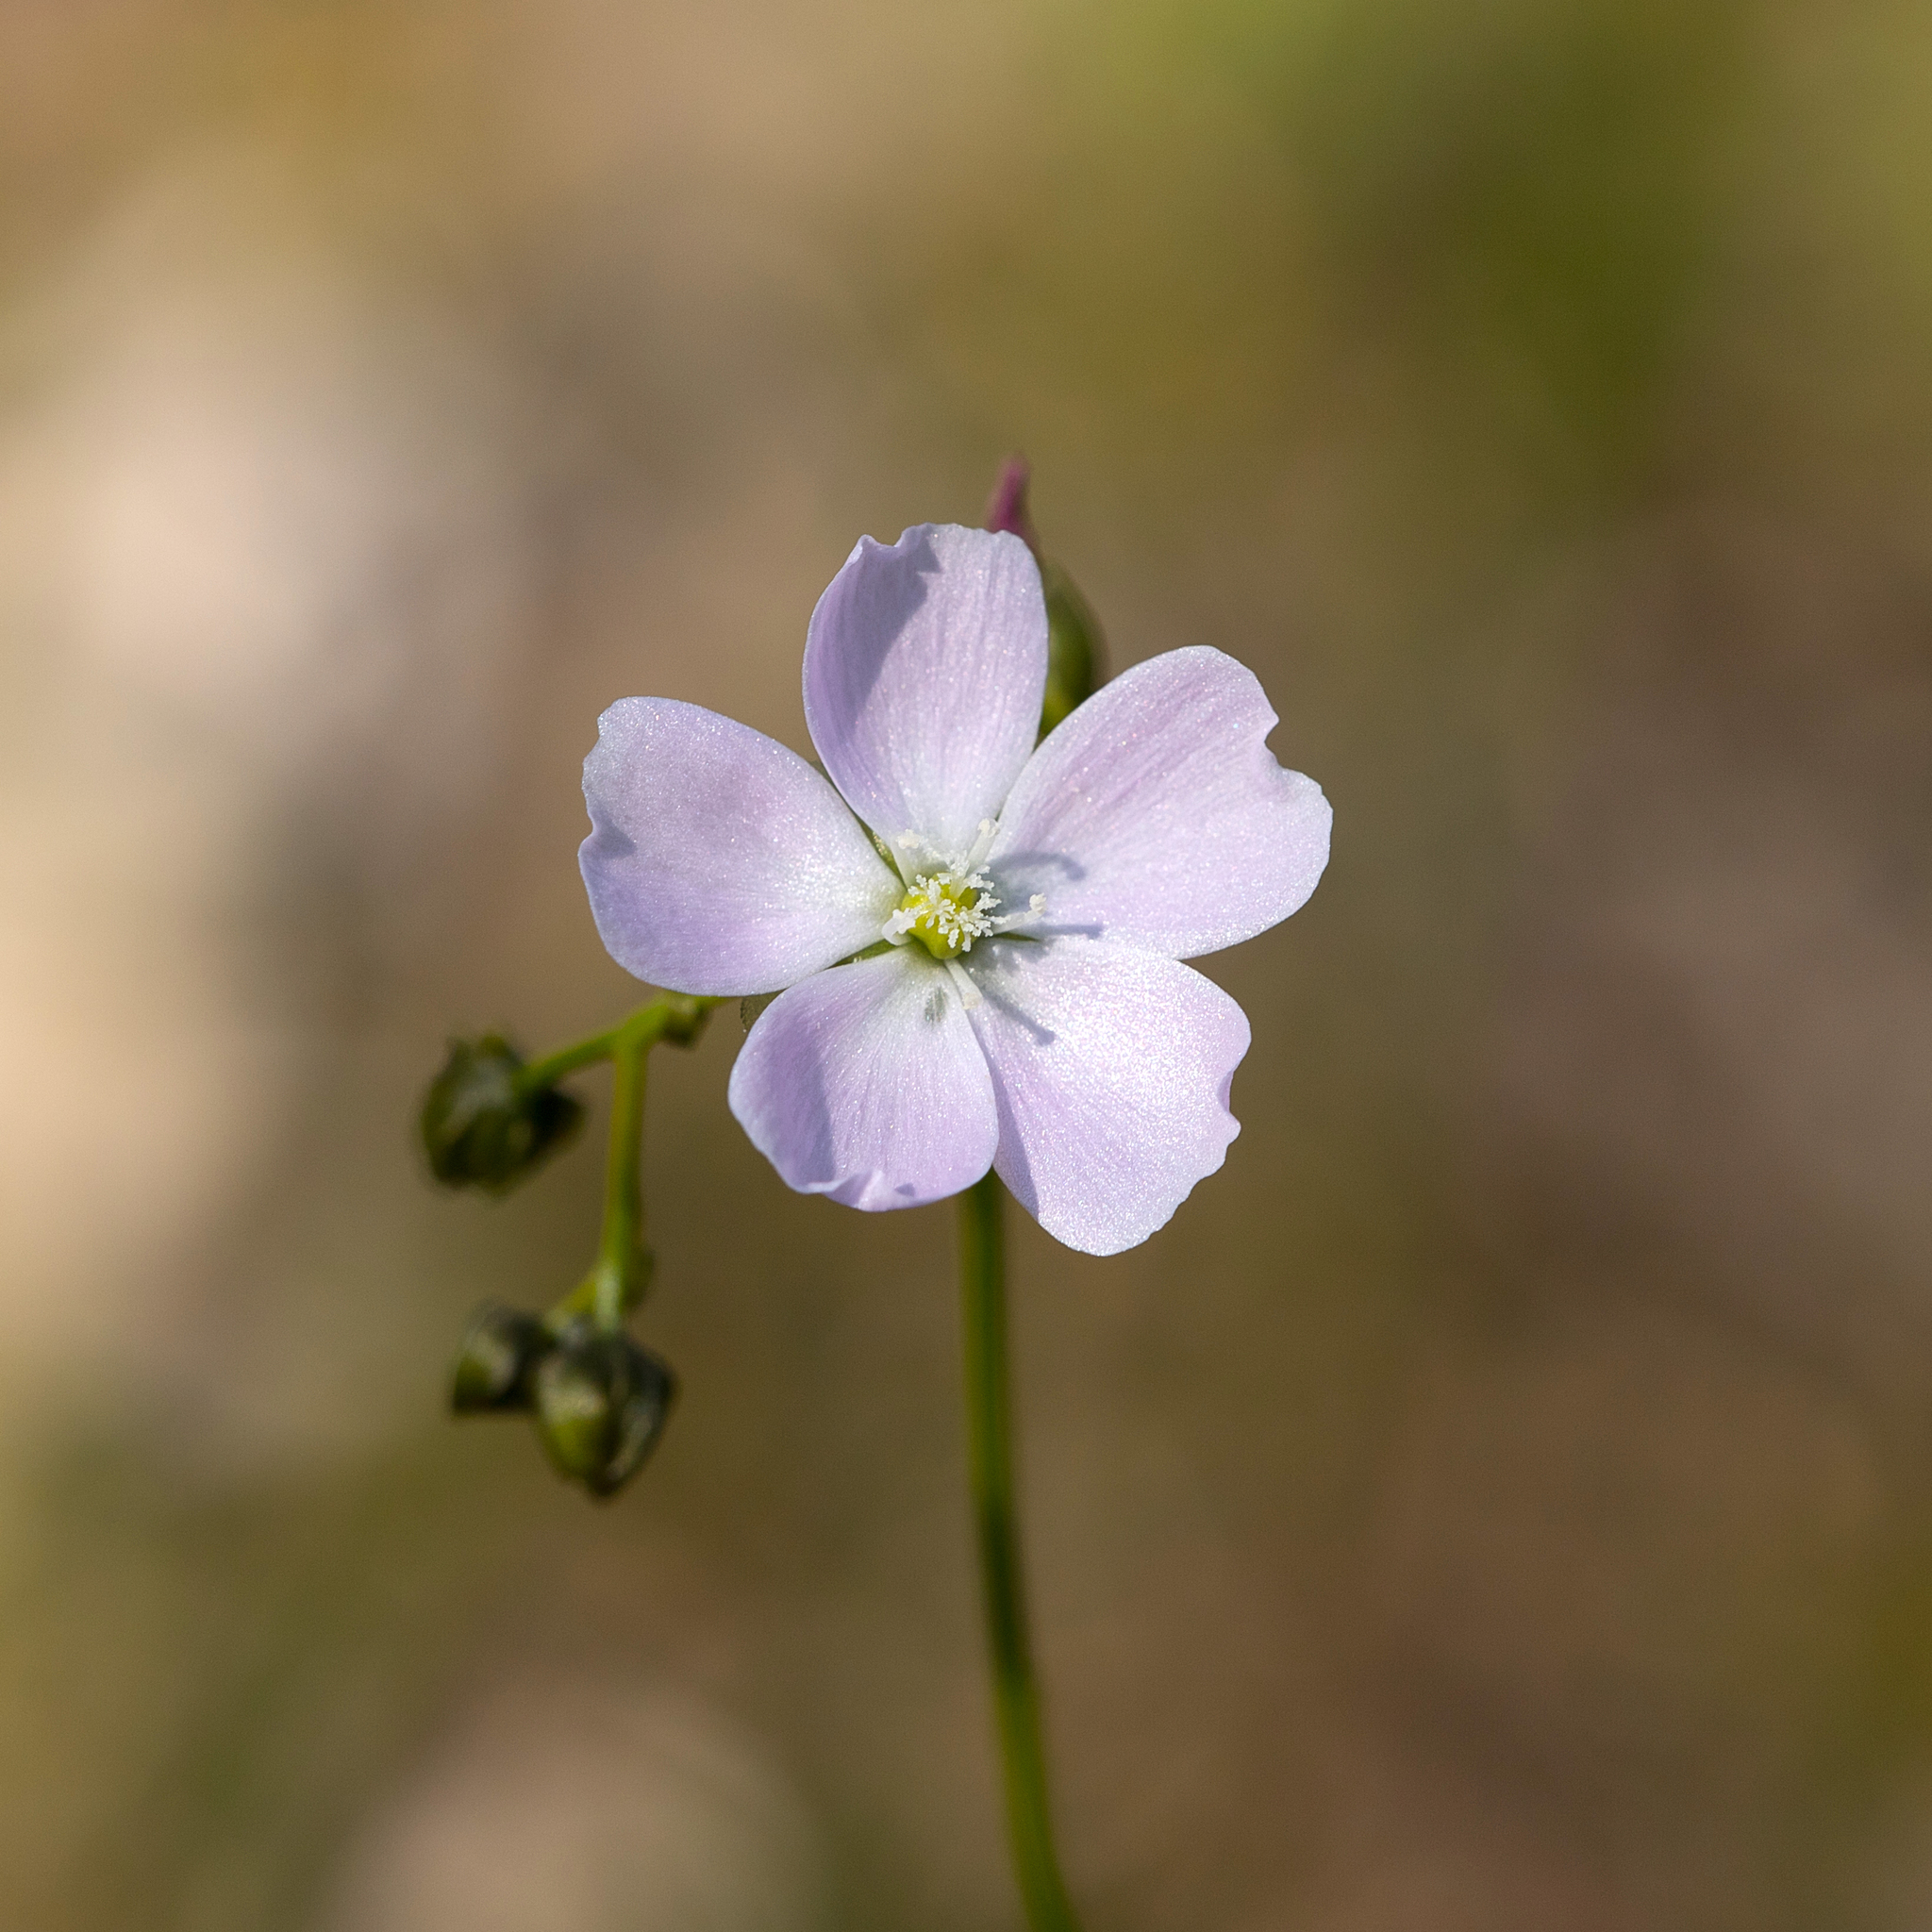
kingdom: Plantae
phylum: Tracheophyta
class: Magnoliopsida
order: Caryophyllales
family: Droseraceae
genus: Drosera
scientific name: Drosera peltata
